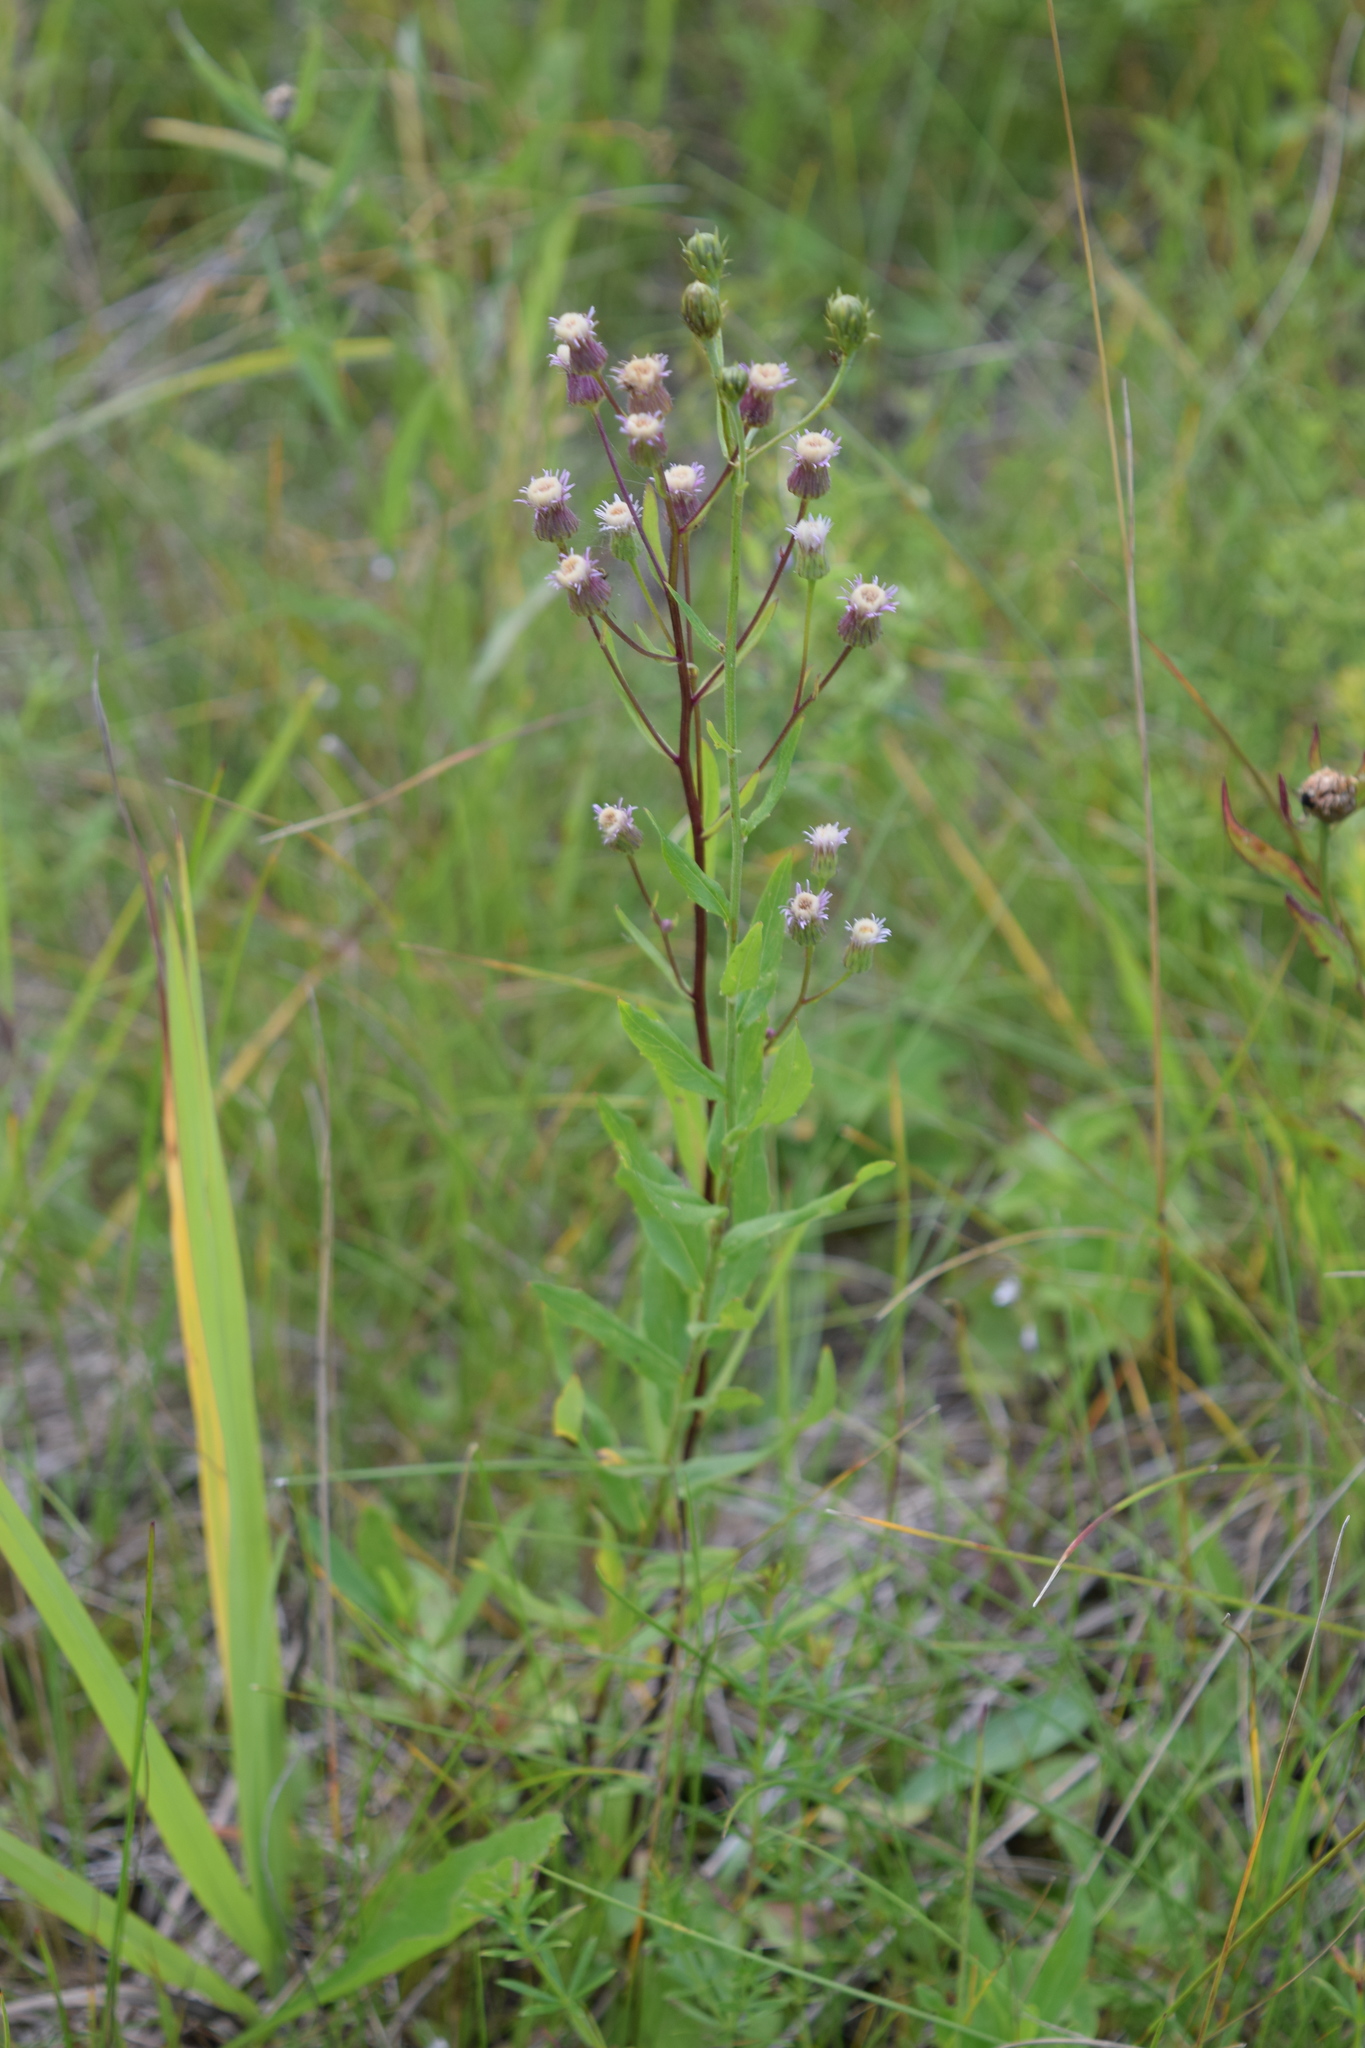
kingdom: Plantae
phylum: Tracheophyta
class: Magnoliopsida
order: Asterales
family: Asteraceae
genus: Erigeron
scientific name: Erigeron acris
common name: Blue fleabane
